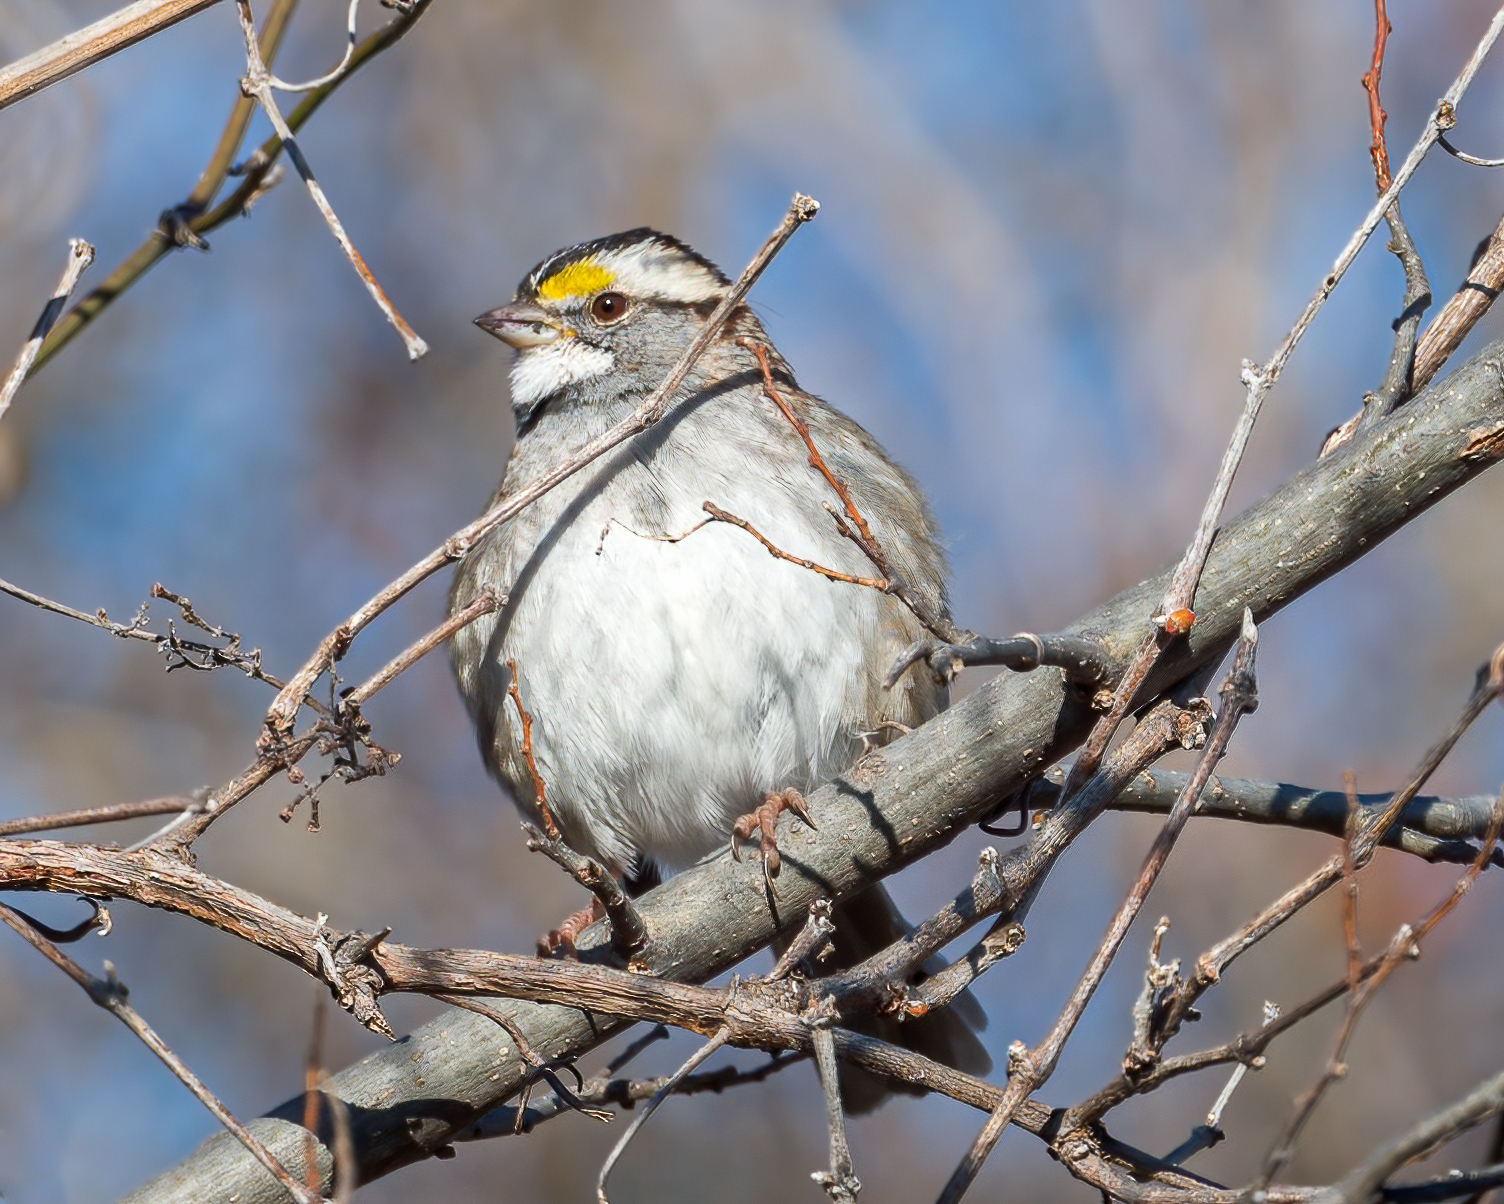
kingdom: Animalia
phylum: Chordata
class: Aves
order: Passeriformes
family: Passerellidae
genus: Zonotrichia
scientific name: Zonotrichia albicollis
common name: White-throated sparrow
